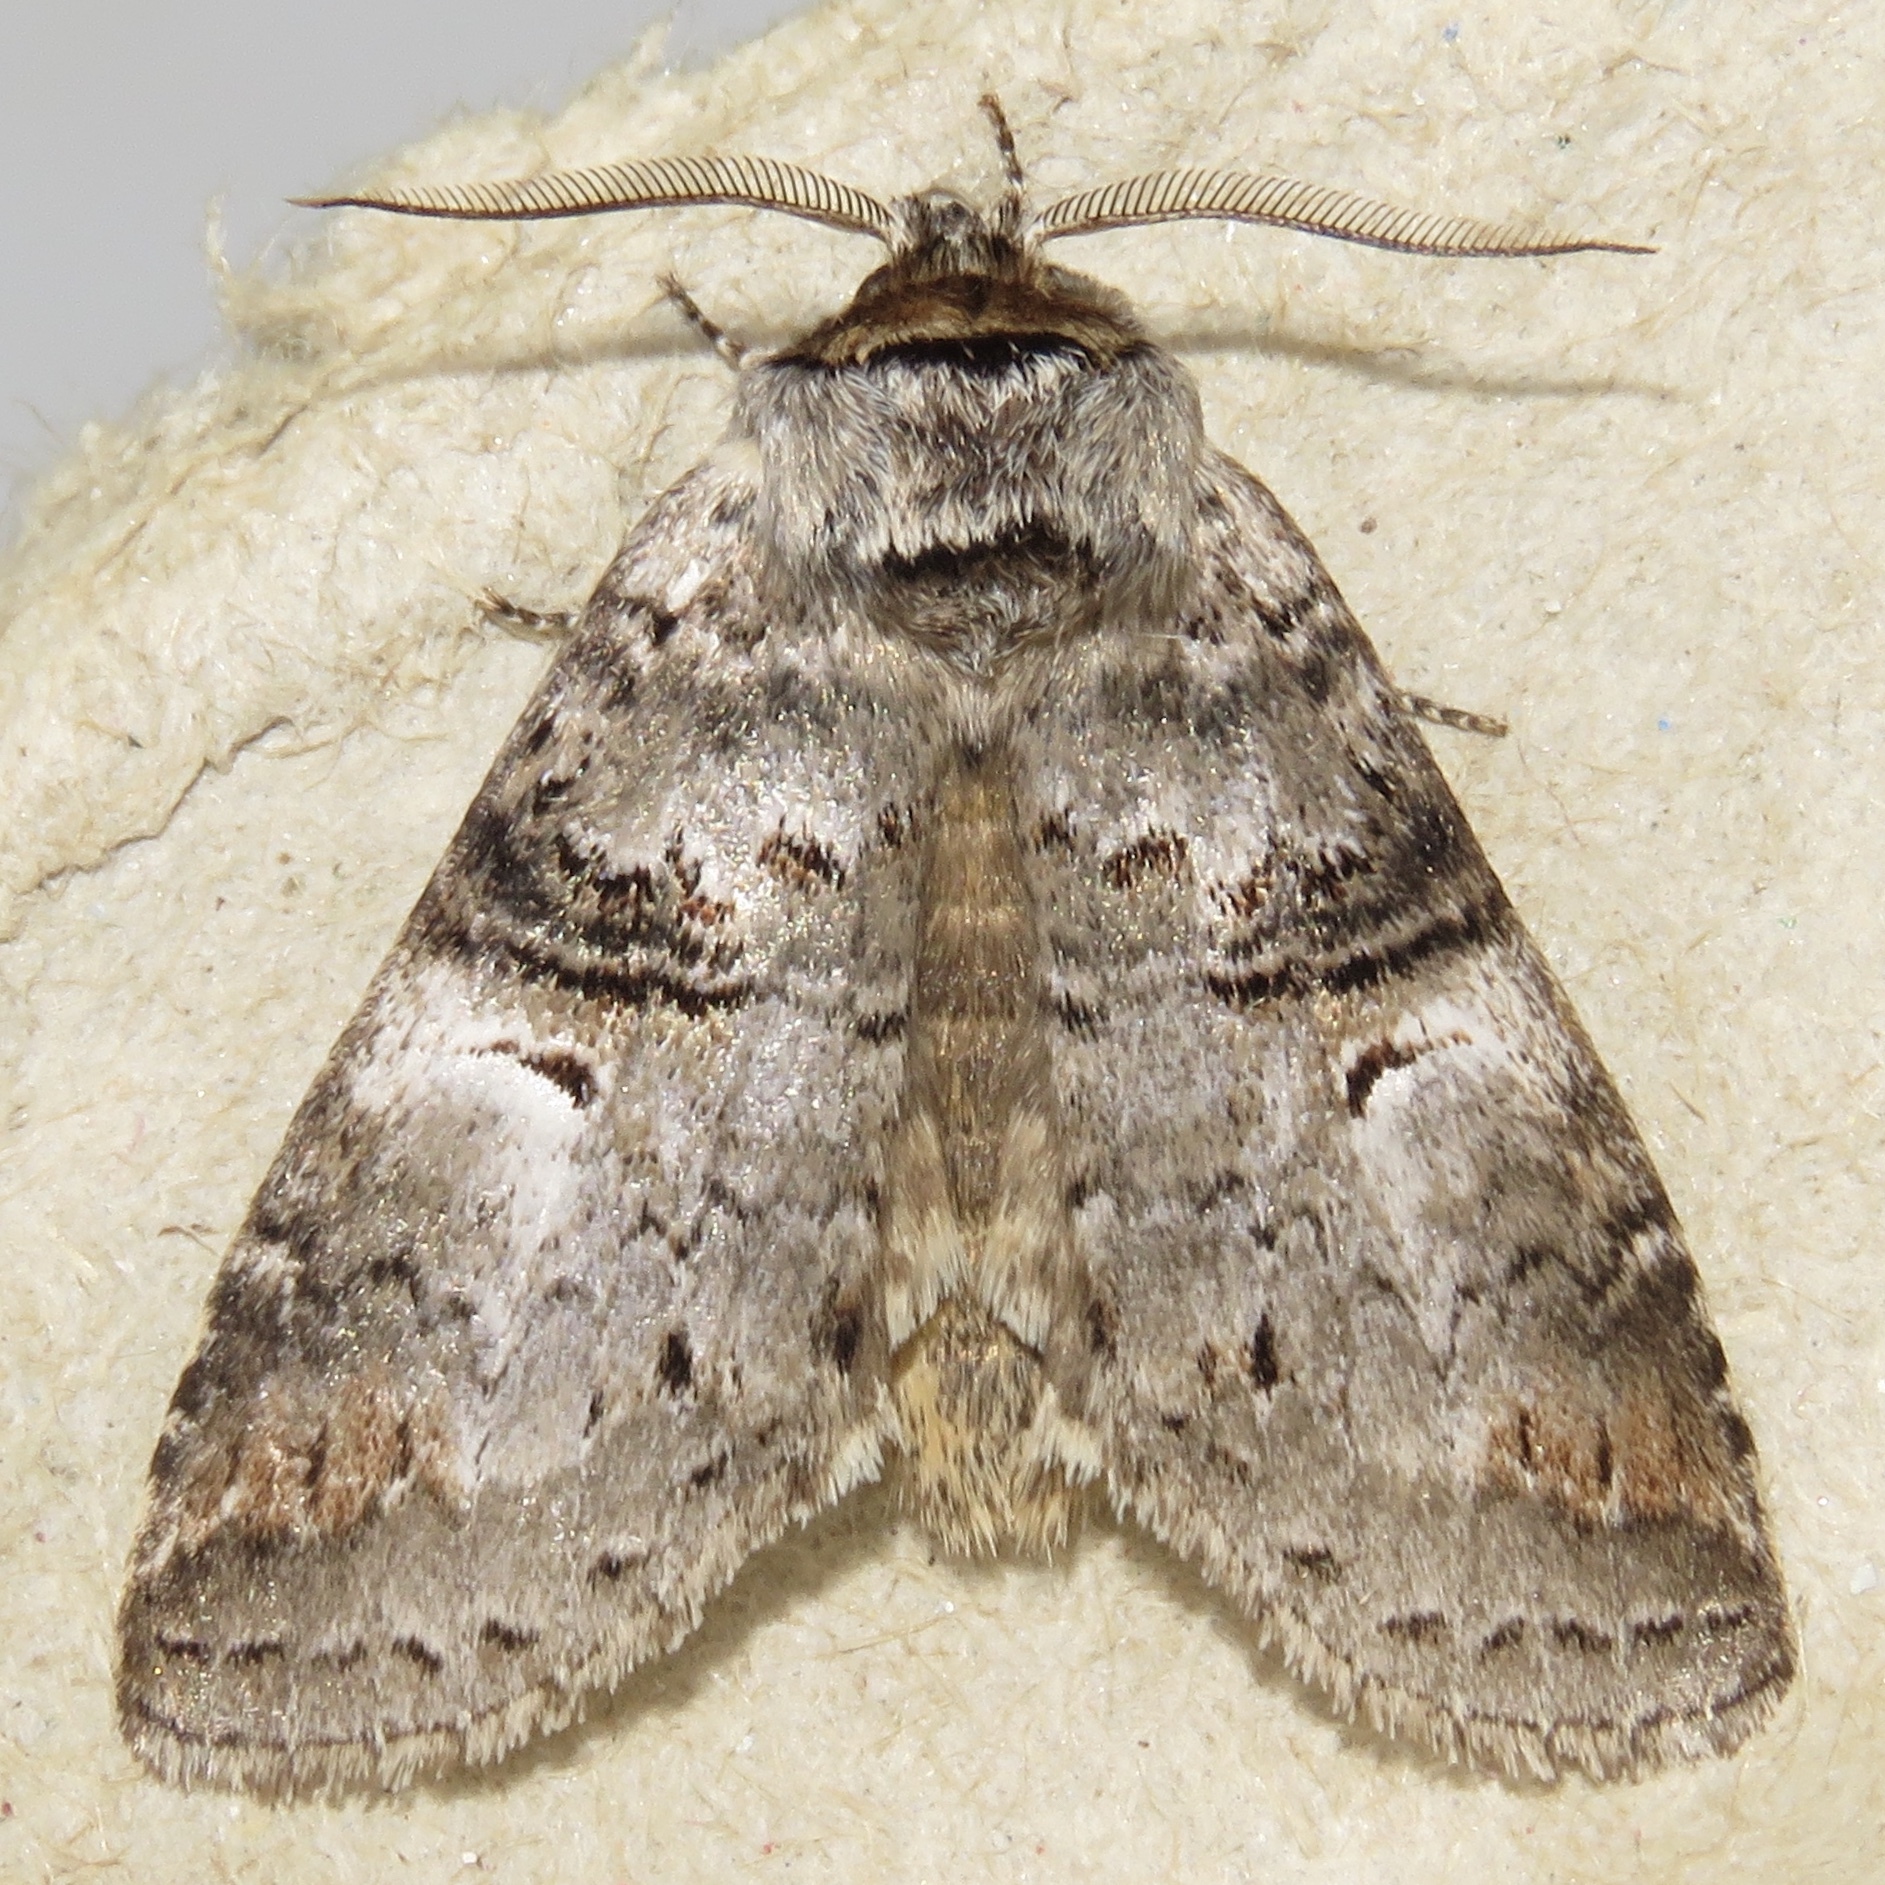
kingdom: Animalia
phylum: Arthropoda
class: Insecta
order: Lepidoptera
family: Notodontidae
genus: Ellida
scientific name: Ellida caniplaga
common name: Linden prominent
